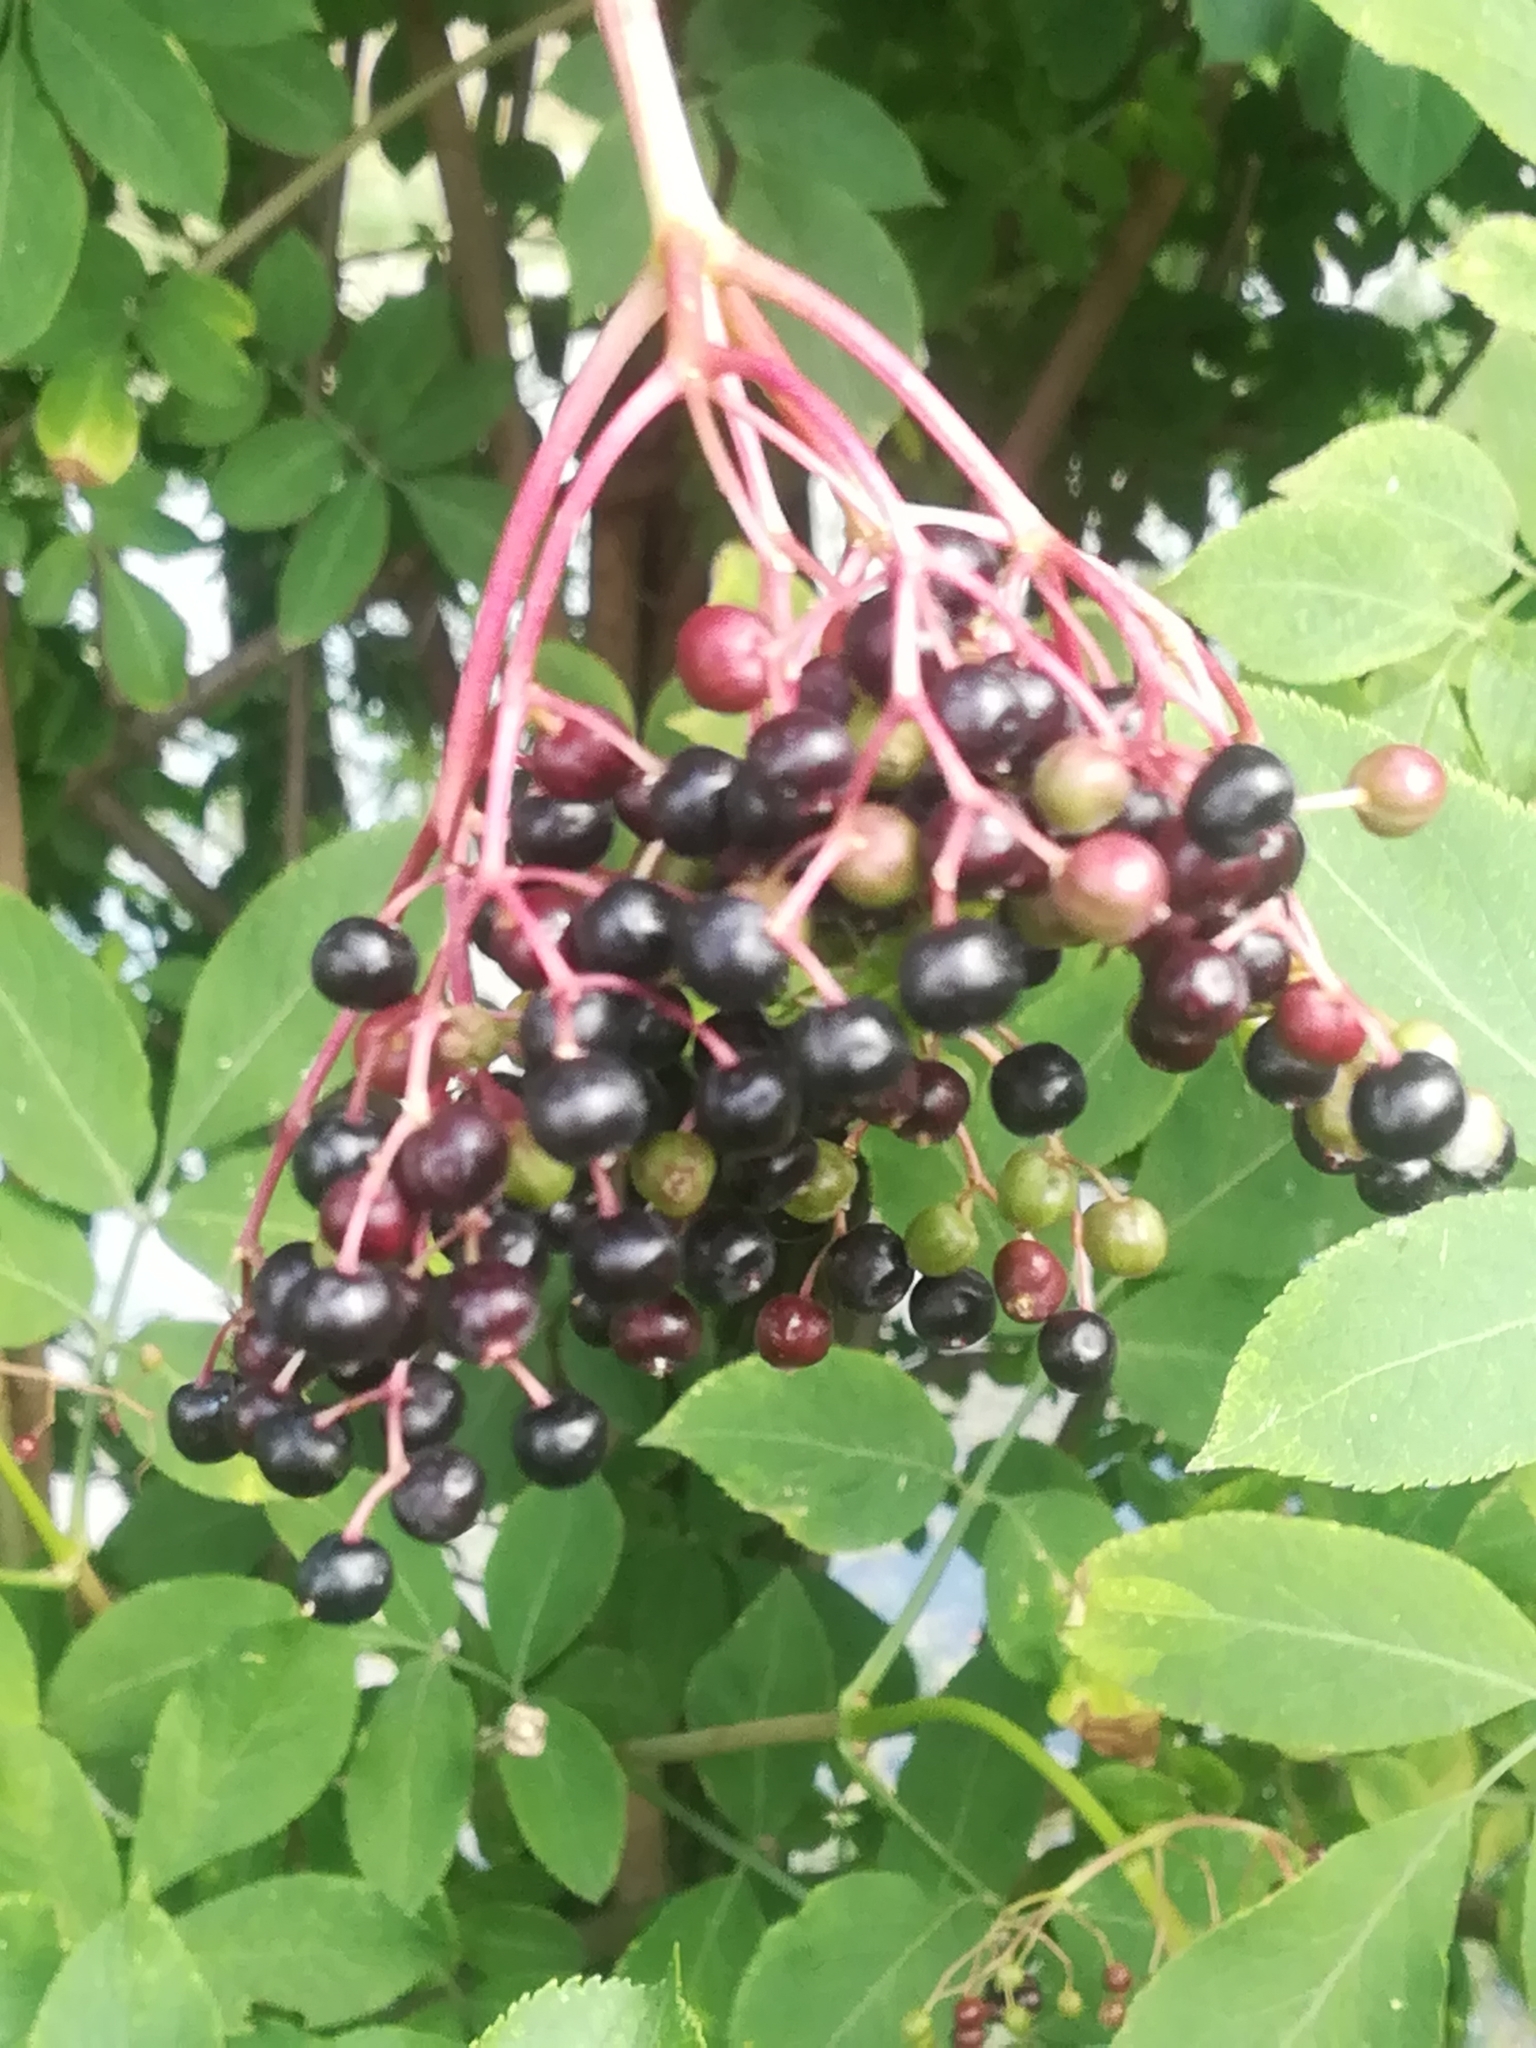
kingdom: Plantae
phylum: Tracheophyta
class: Magnoliopsida
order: Dipsacales
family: Viburnaceae
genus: Sambucus
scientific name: Sambucus nigra
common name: Elder
